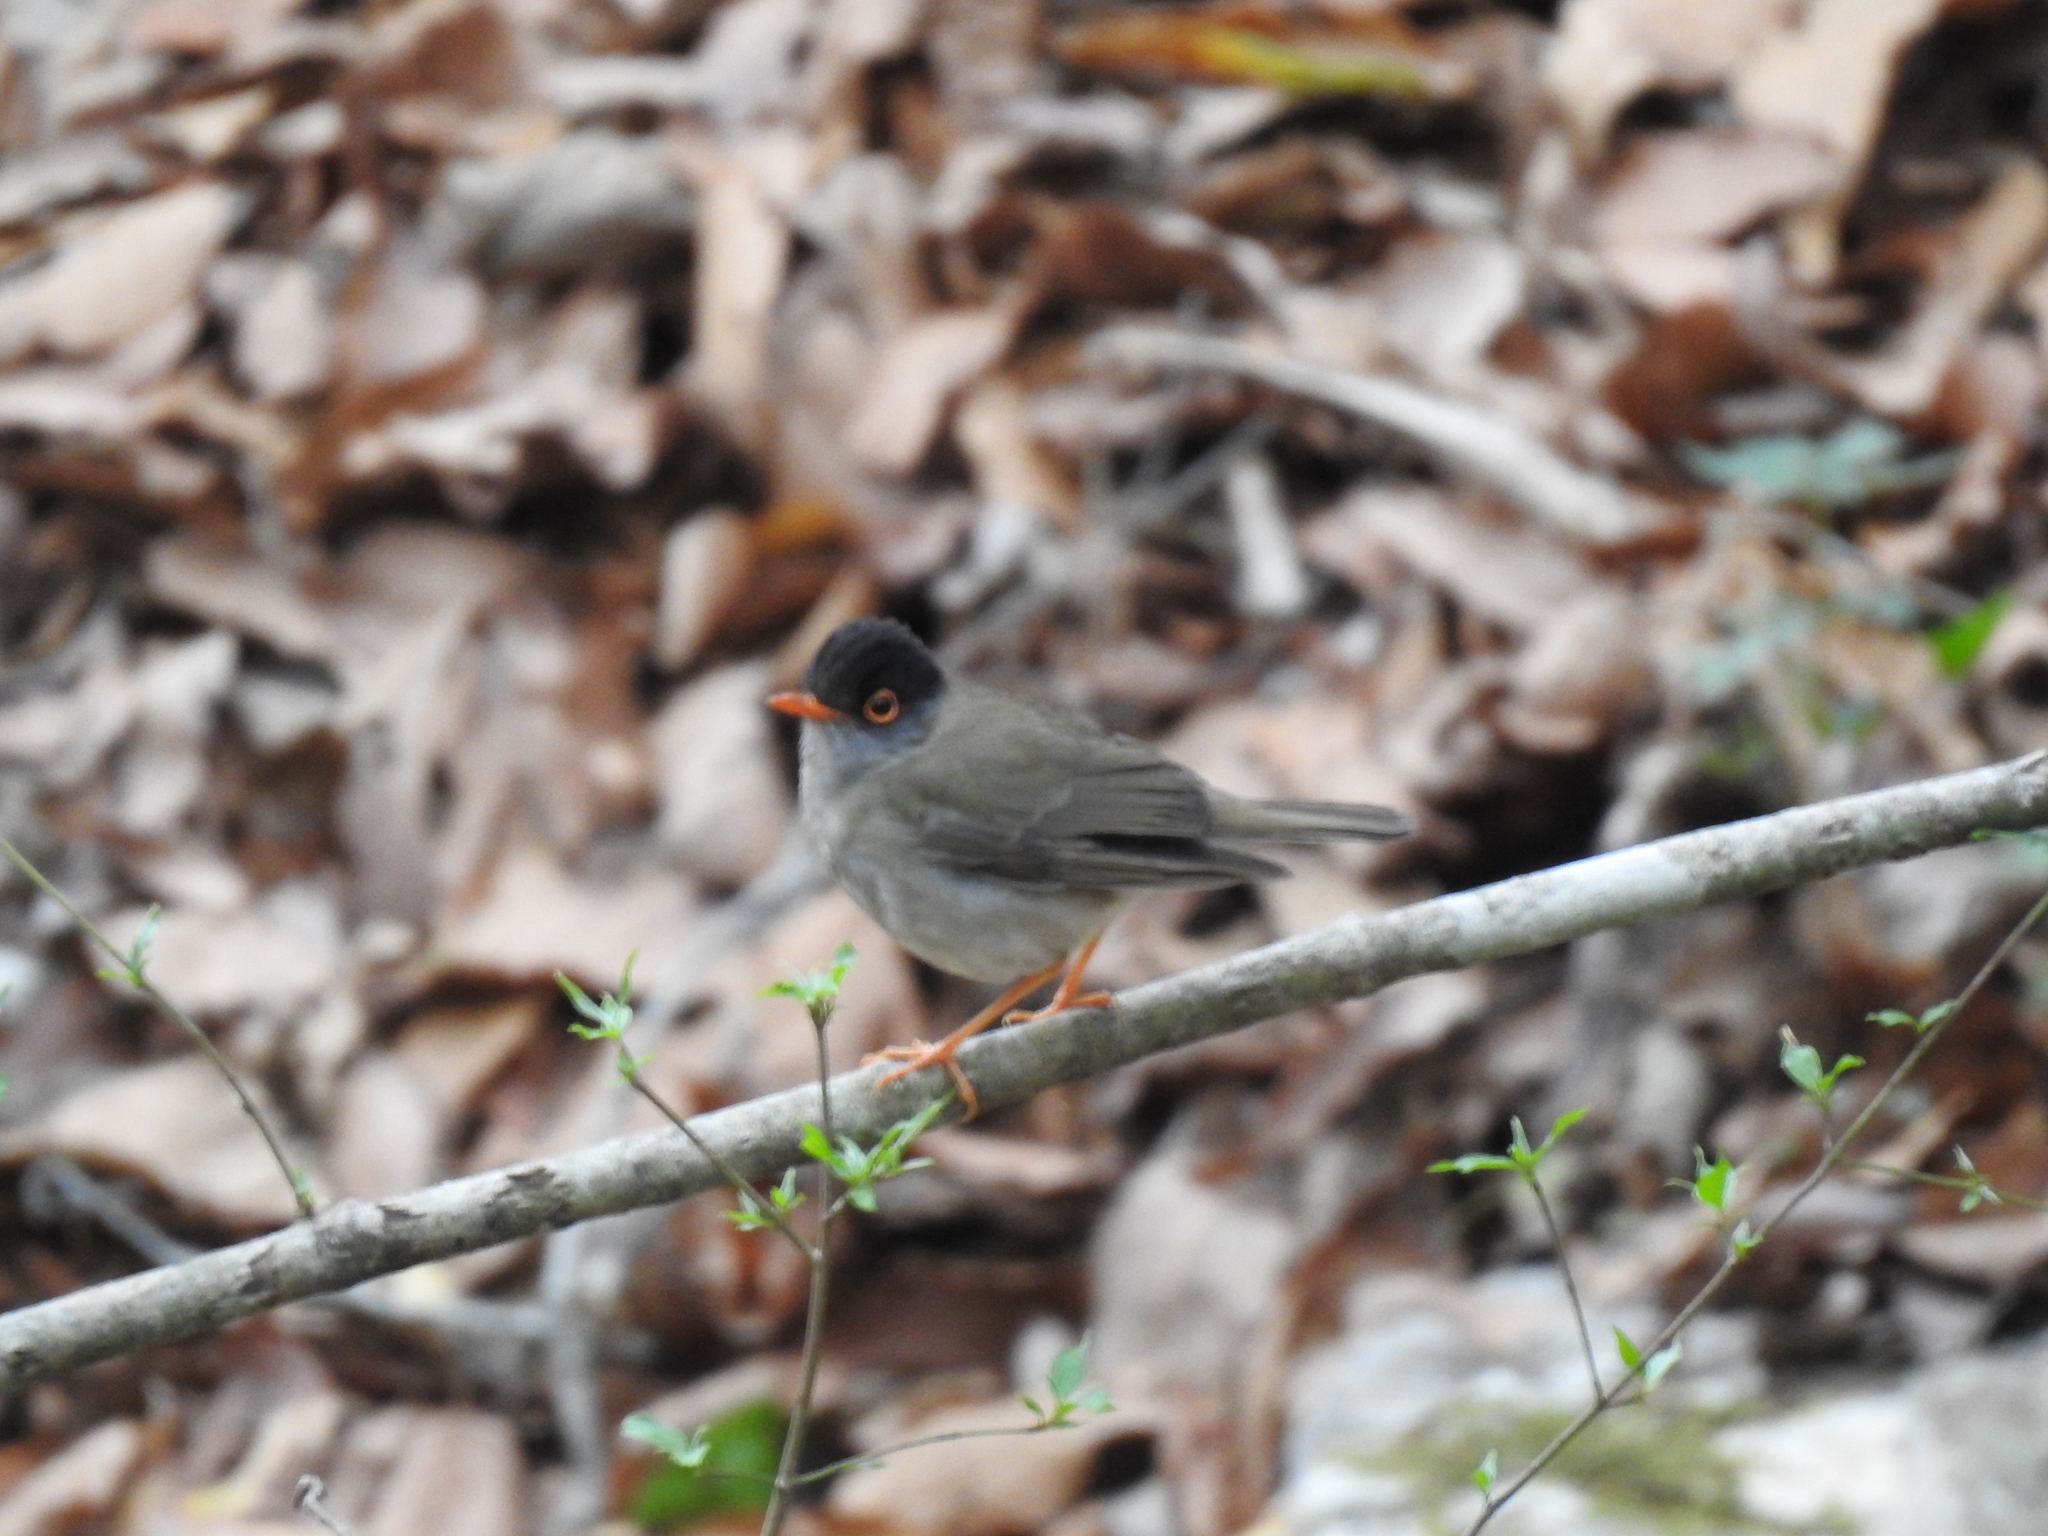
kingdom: Animalia
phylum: Chordata
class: Aves
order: Passeriformes
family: Turdidae
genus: Catharus
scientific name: Catharus mexicanus
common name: Black-headed nightingale-thrush
